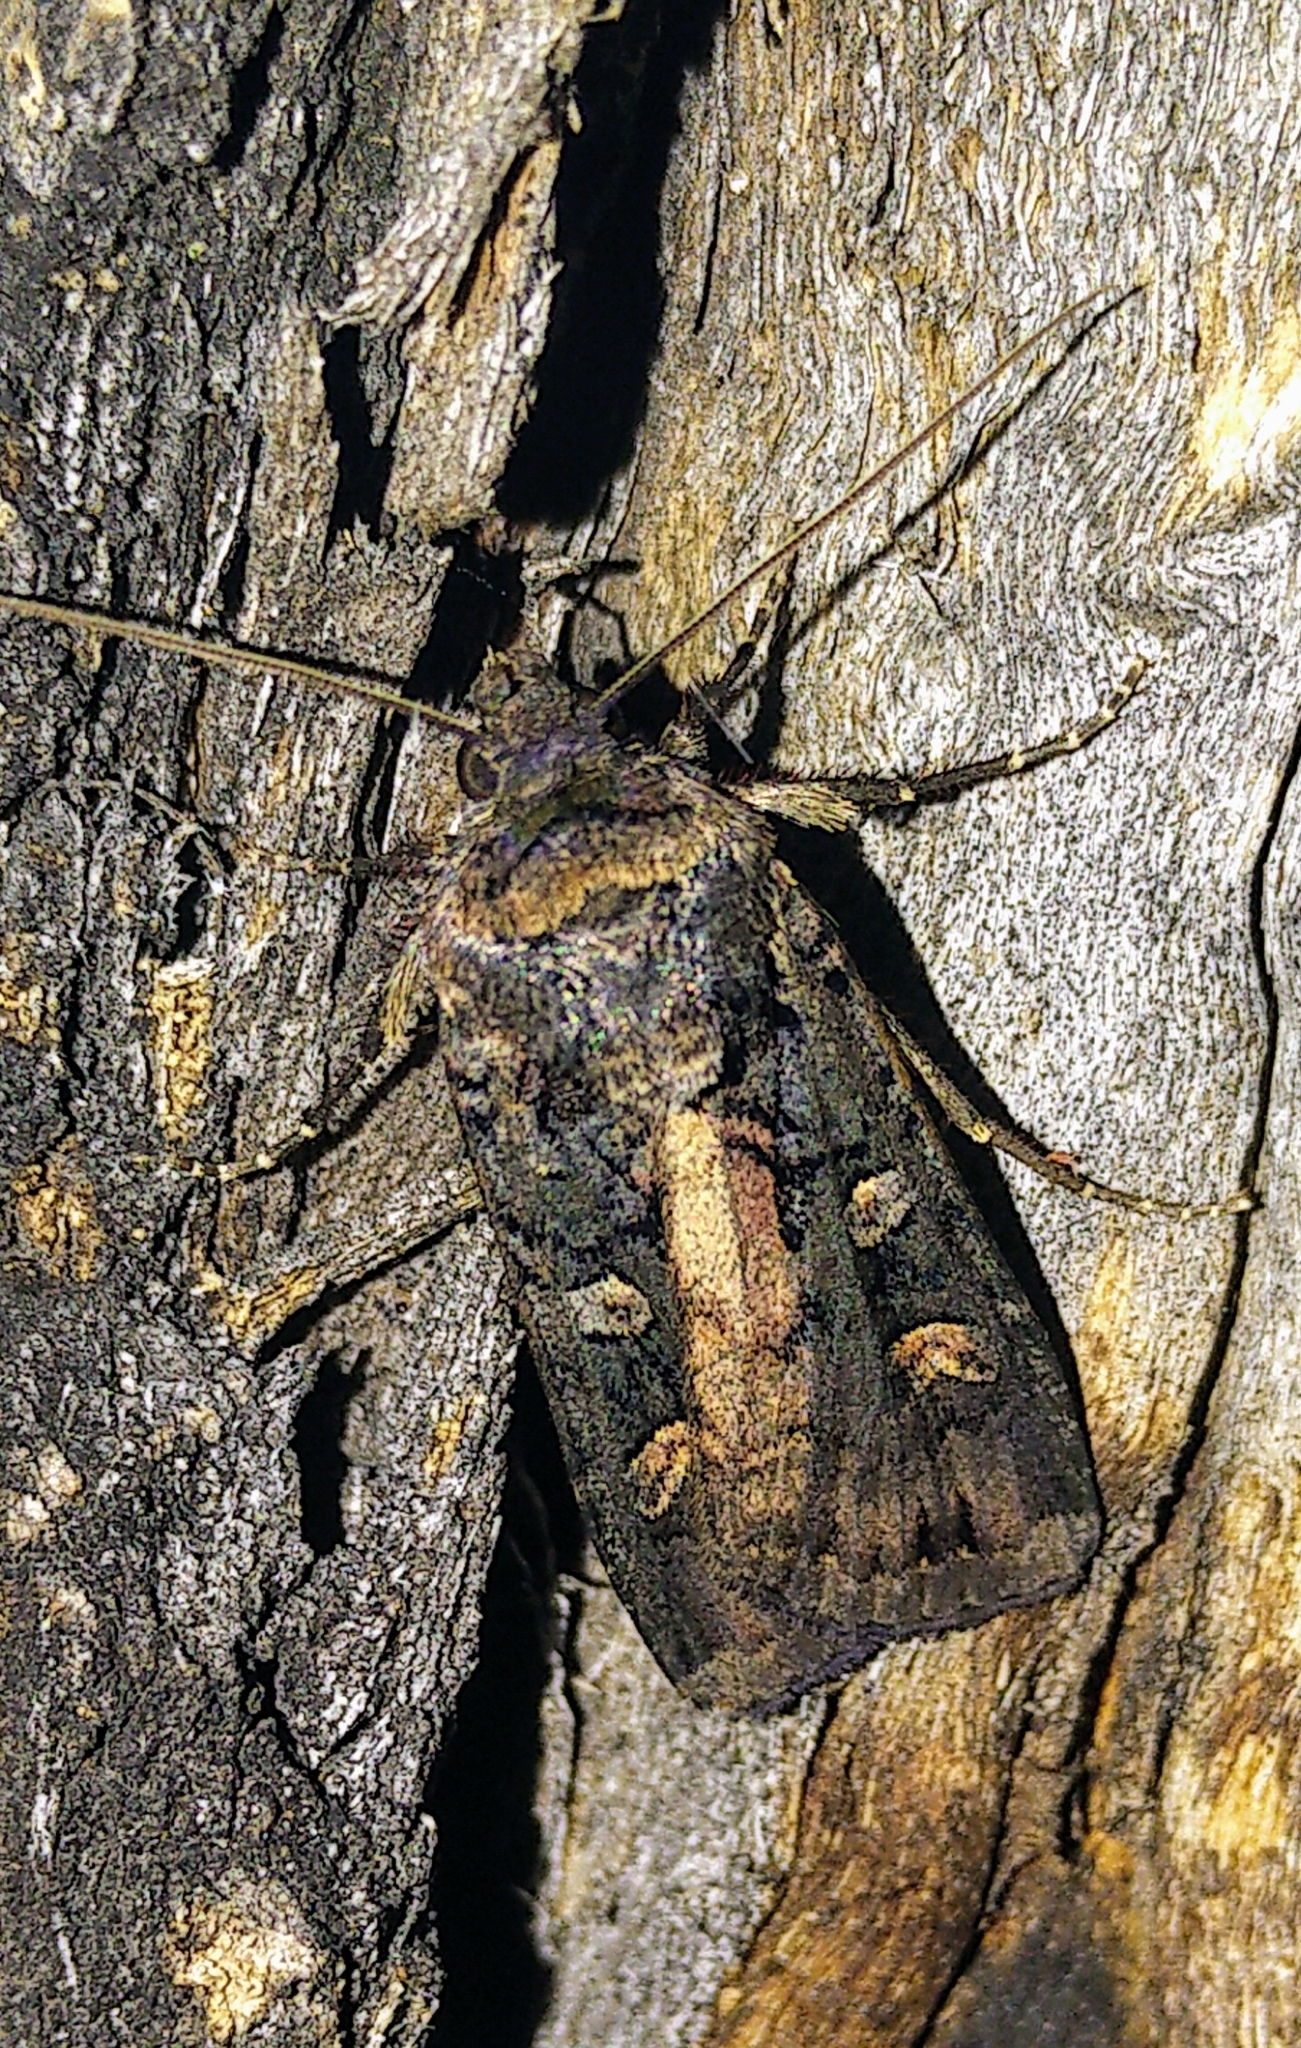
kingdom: Animalia
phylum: Arthropoda
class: Insecta
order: Lepidoptera
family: Noctuidae
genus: Actebia
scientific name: Actebia fennica
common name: Eversmann's rustic
